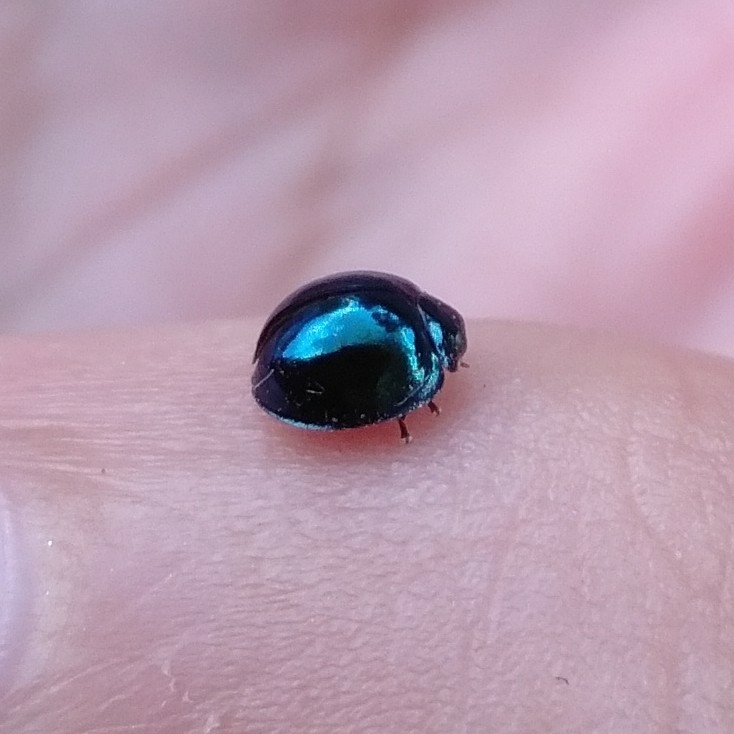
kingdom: Animalia
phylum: Arthropoda
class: Insecta
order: Coleoptera
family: Coccinellidae
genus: Halmus
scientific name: Halmus chalybeus
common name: Steel blue ladybird beetle
